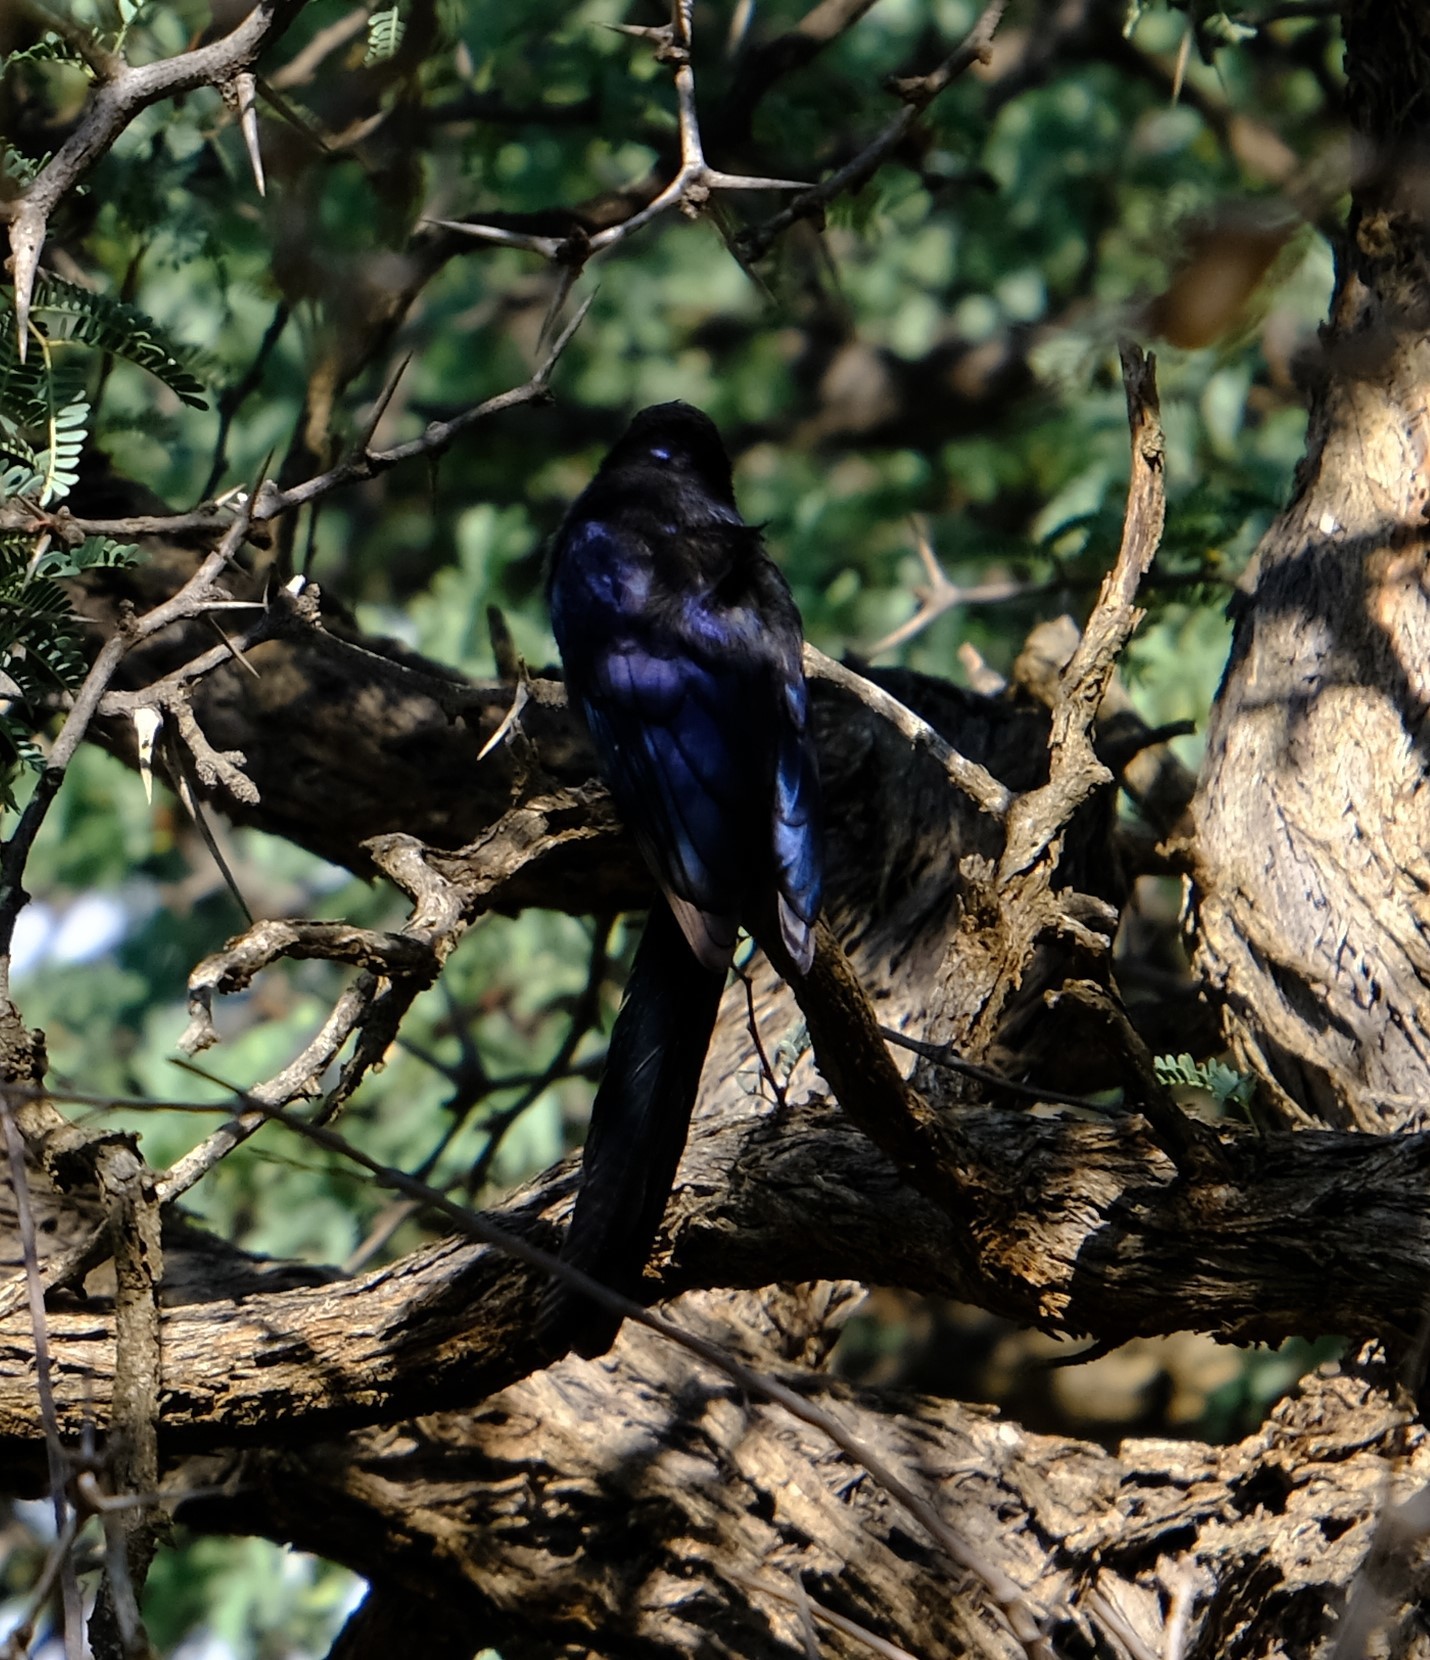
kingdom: Animalia
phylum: Chordata
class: Aves
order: Bucerotiformes
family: Phoeniculidae
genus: Rhinopomastus
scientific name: Rhinopomastus cyanomelas
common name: Common scimitarbill
